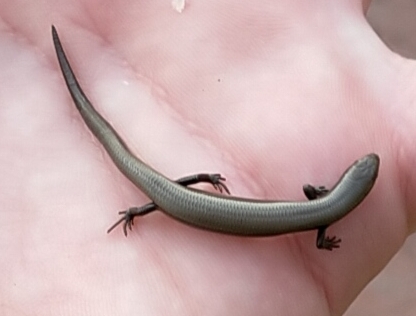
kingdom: Animalia
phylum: Chordata
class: Squamata
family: Scincidae
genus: Ablepharus
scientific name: Ablepharus kitaibelii
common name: Juniper skink
